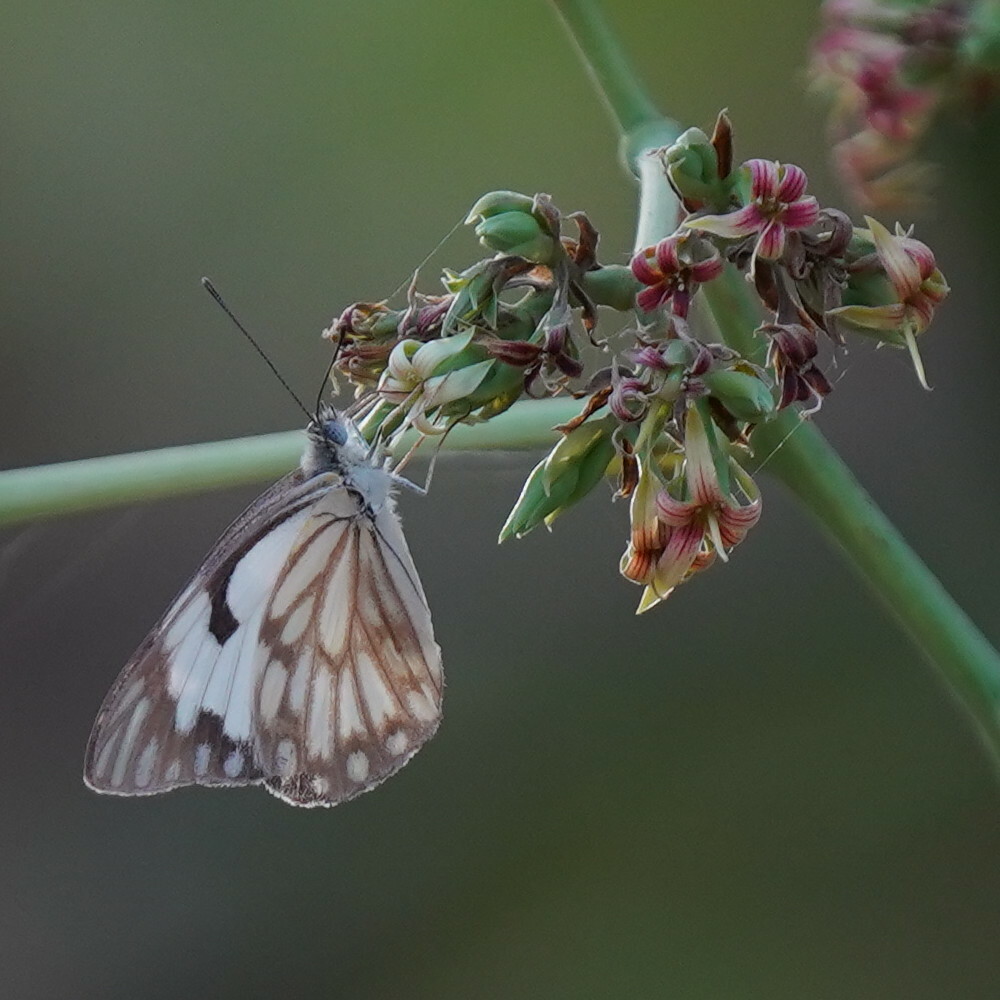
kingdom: Animalia
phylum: Arthropoda
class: Insecta
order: Lepidoptera
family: Pieridae
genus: Belenois
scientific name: Belenois aurota
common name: Brown-veined white
